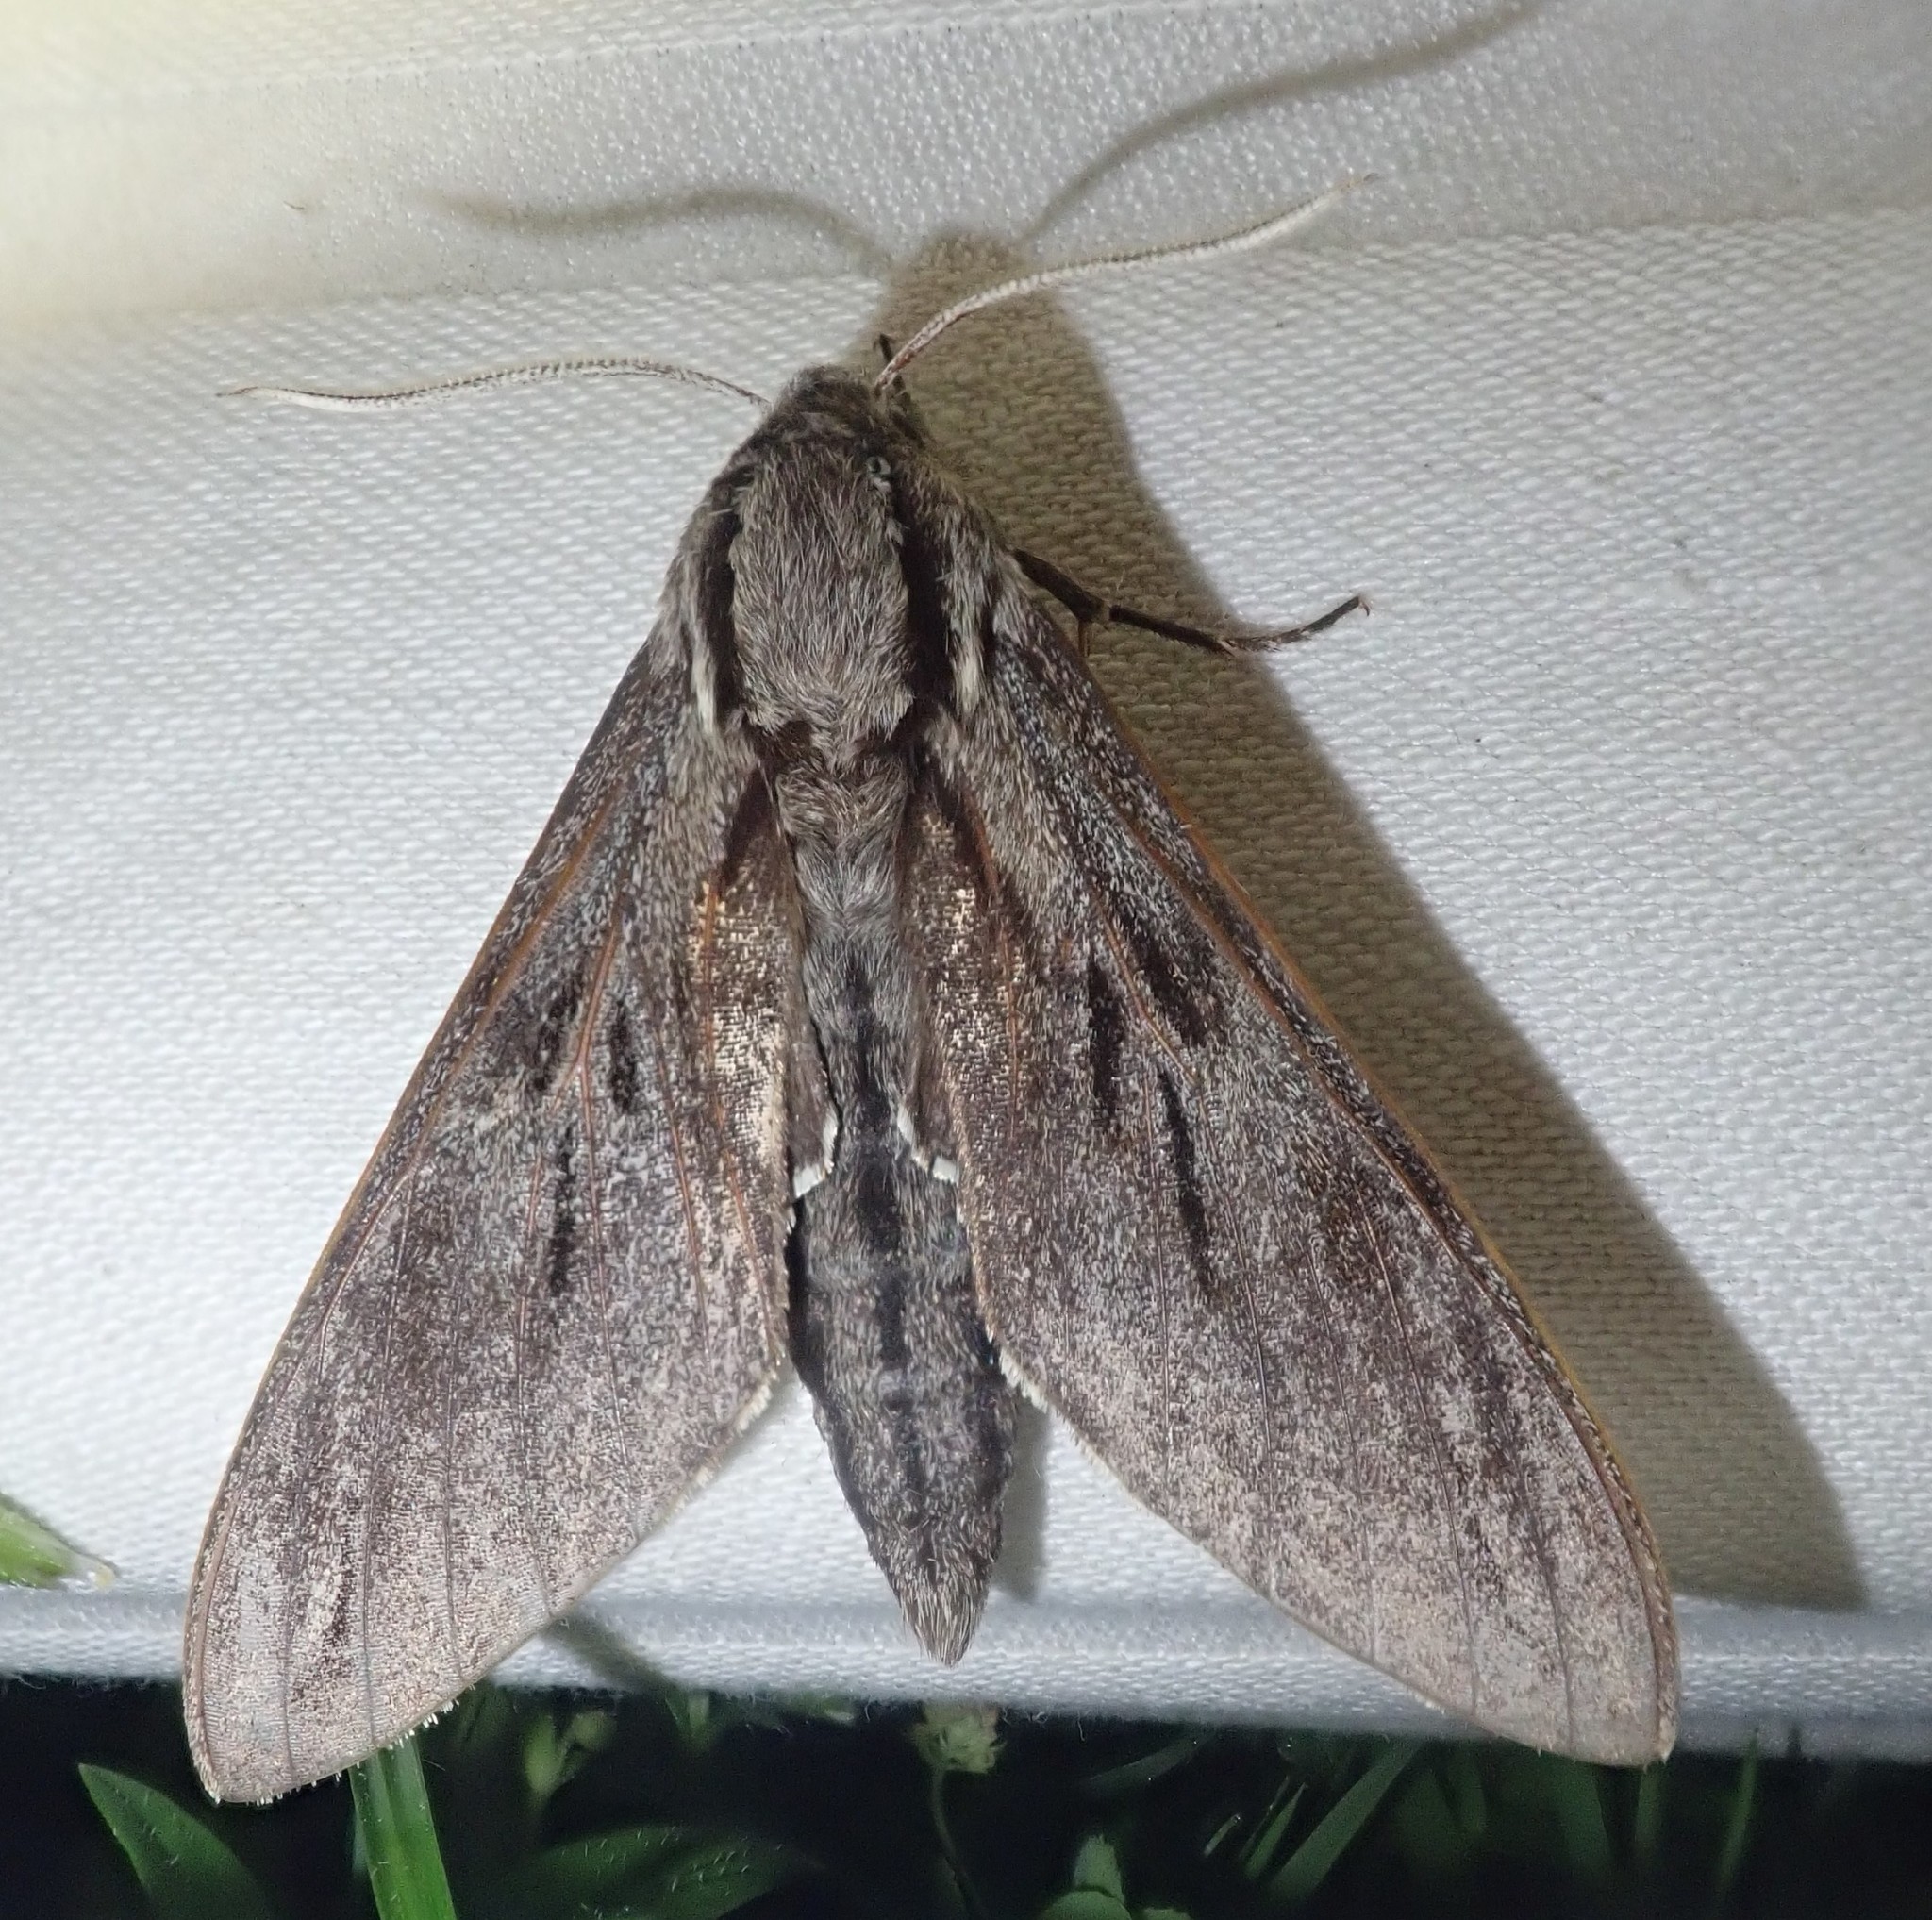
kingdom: Animalia
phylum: Arthropoda
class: Insecta
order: Lepidoptera
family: Sphingidae
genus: Sphinx
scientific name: Sphinx pinastri
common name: Pine hawk-moth
